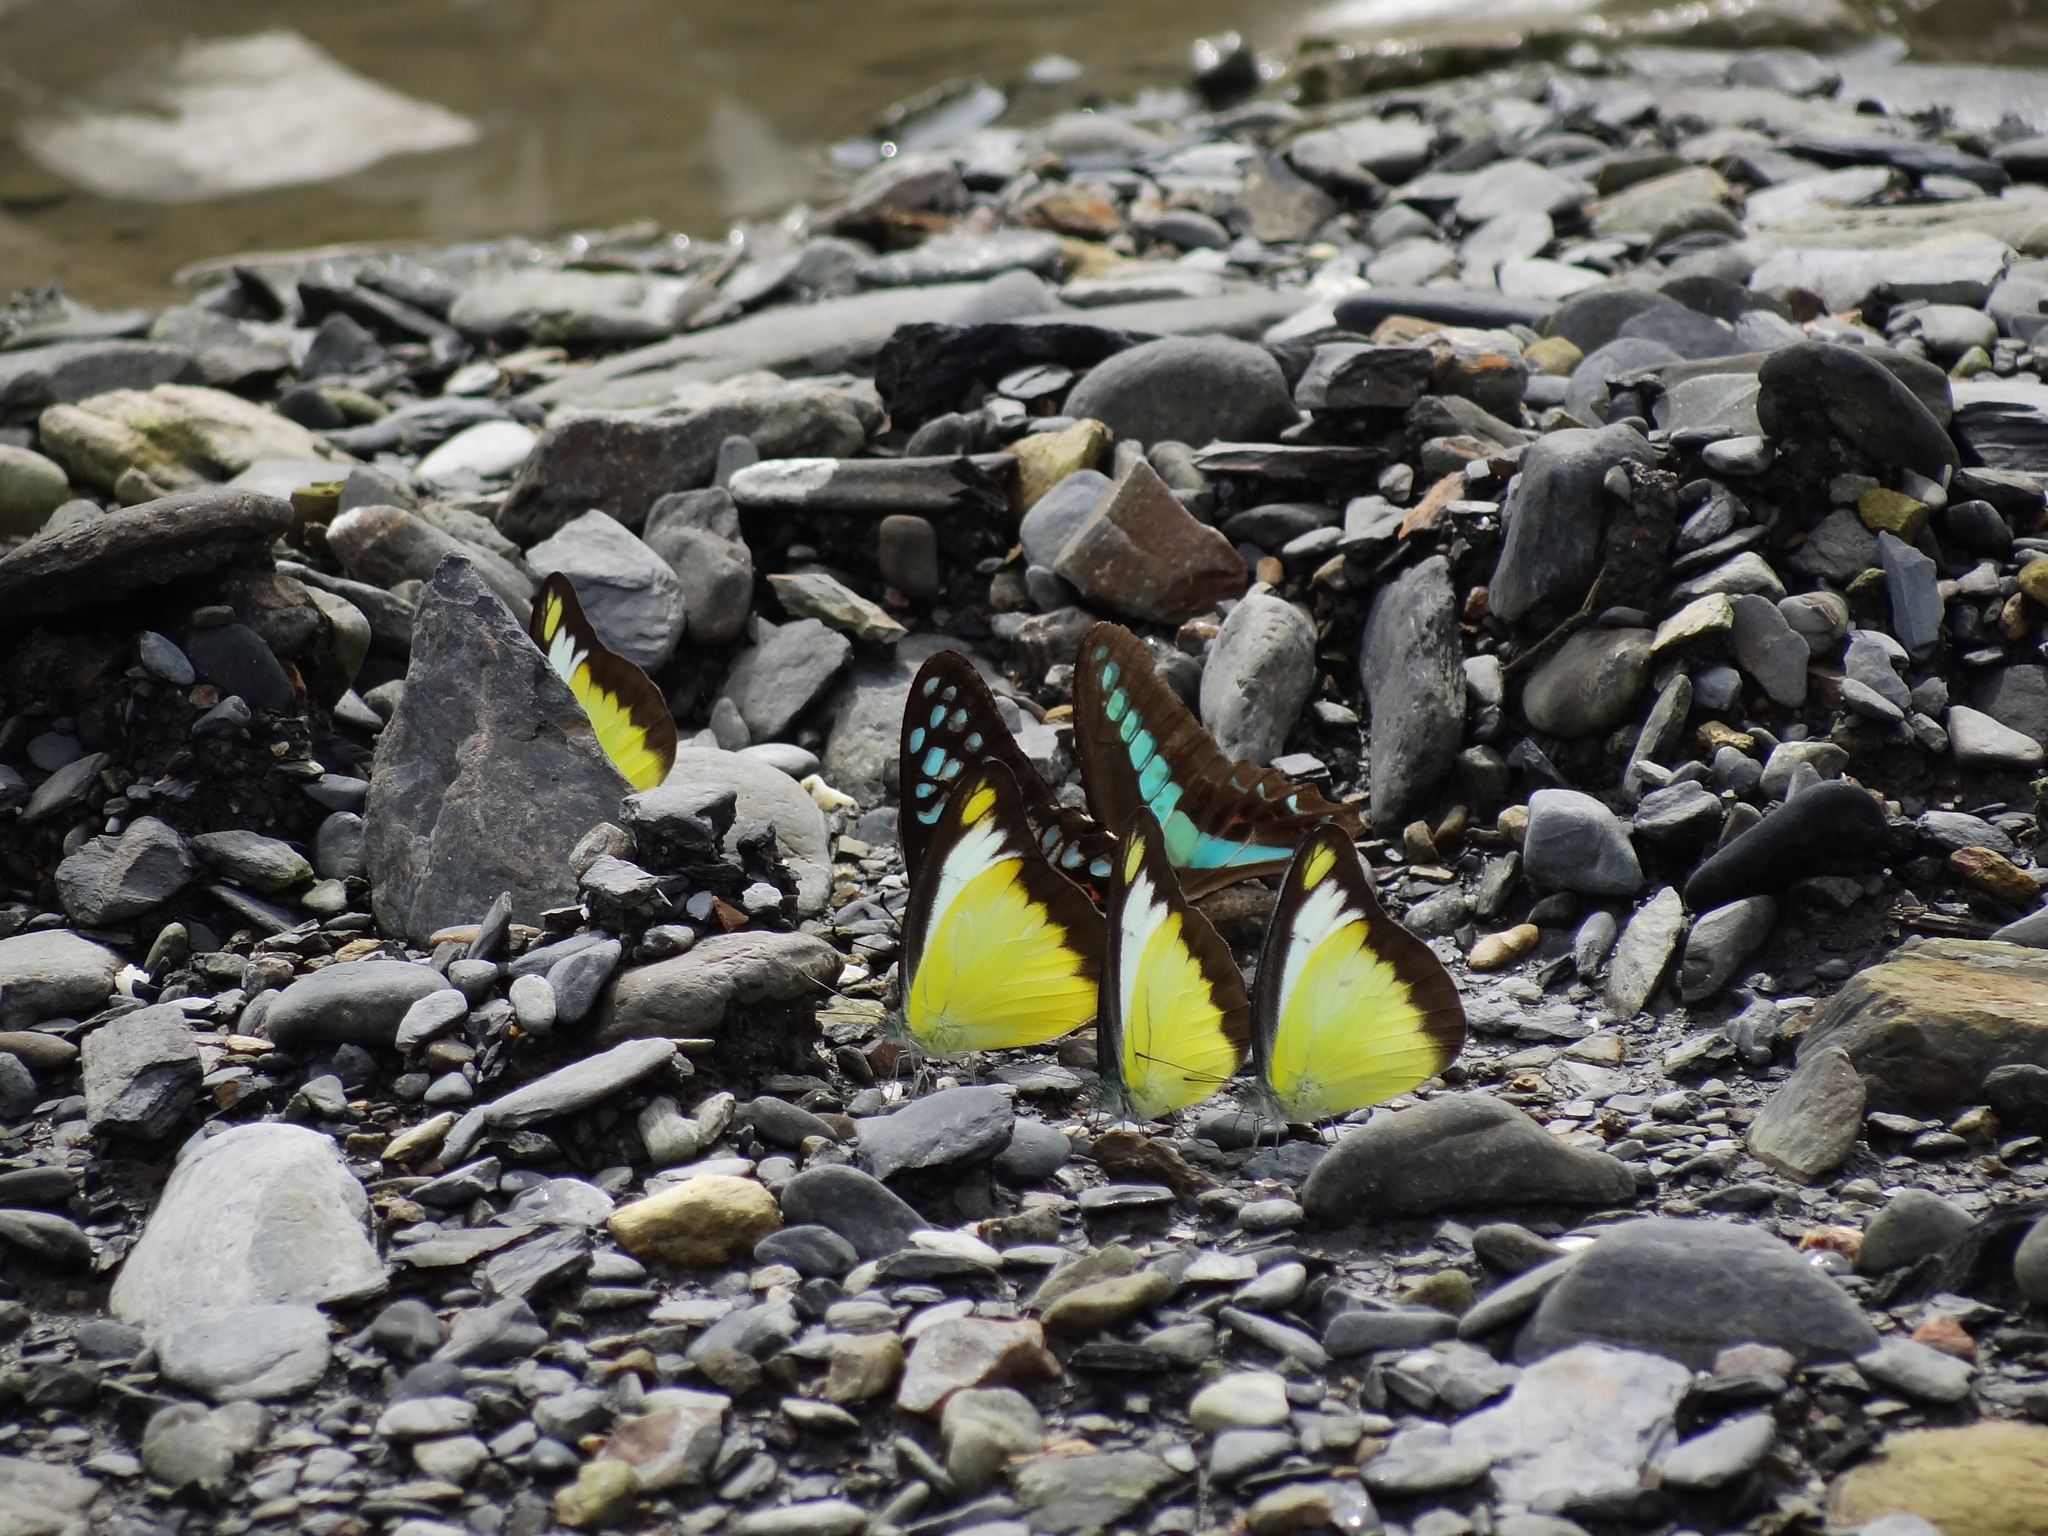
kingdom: Animalia
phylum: Arthropoda
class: Insecta
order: Lepidoptera
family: Pieridae
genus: Appias
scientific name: Appias lyncida
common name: Chocolate albatross
